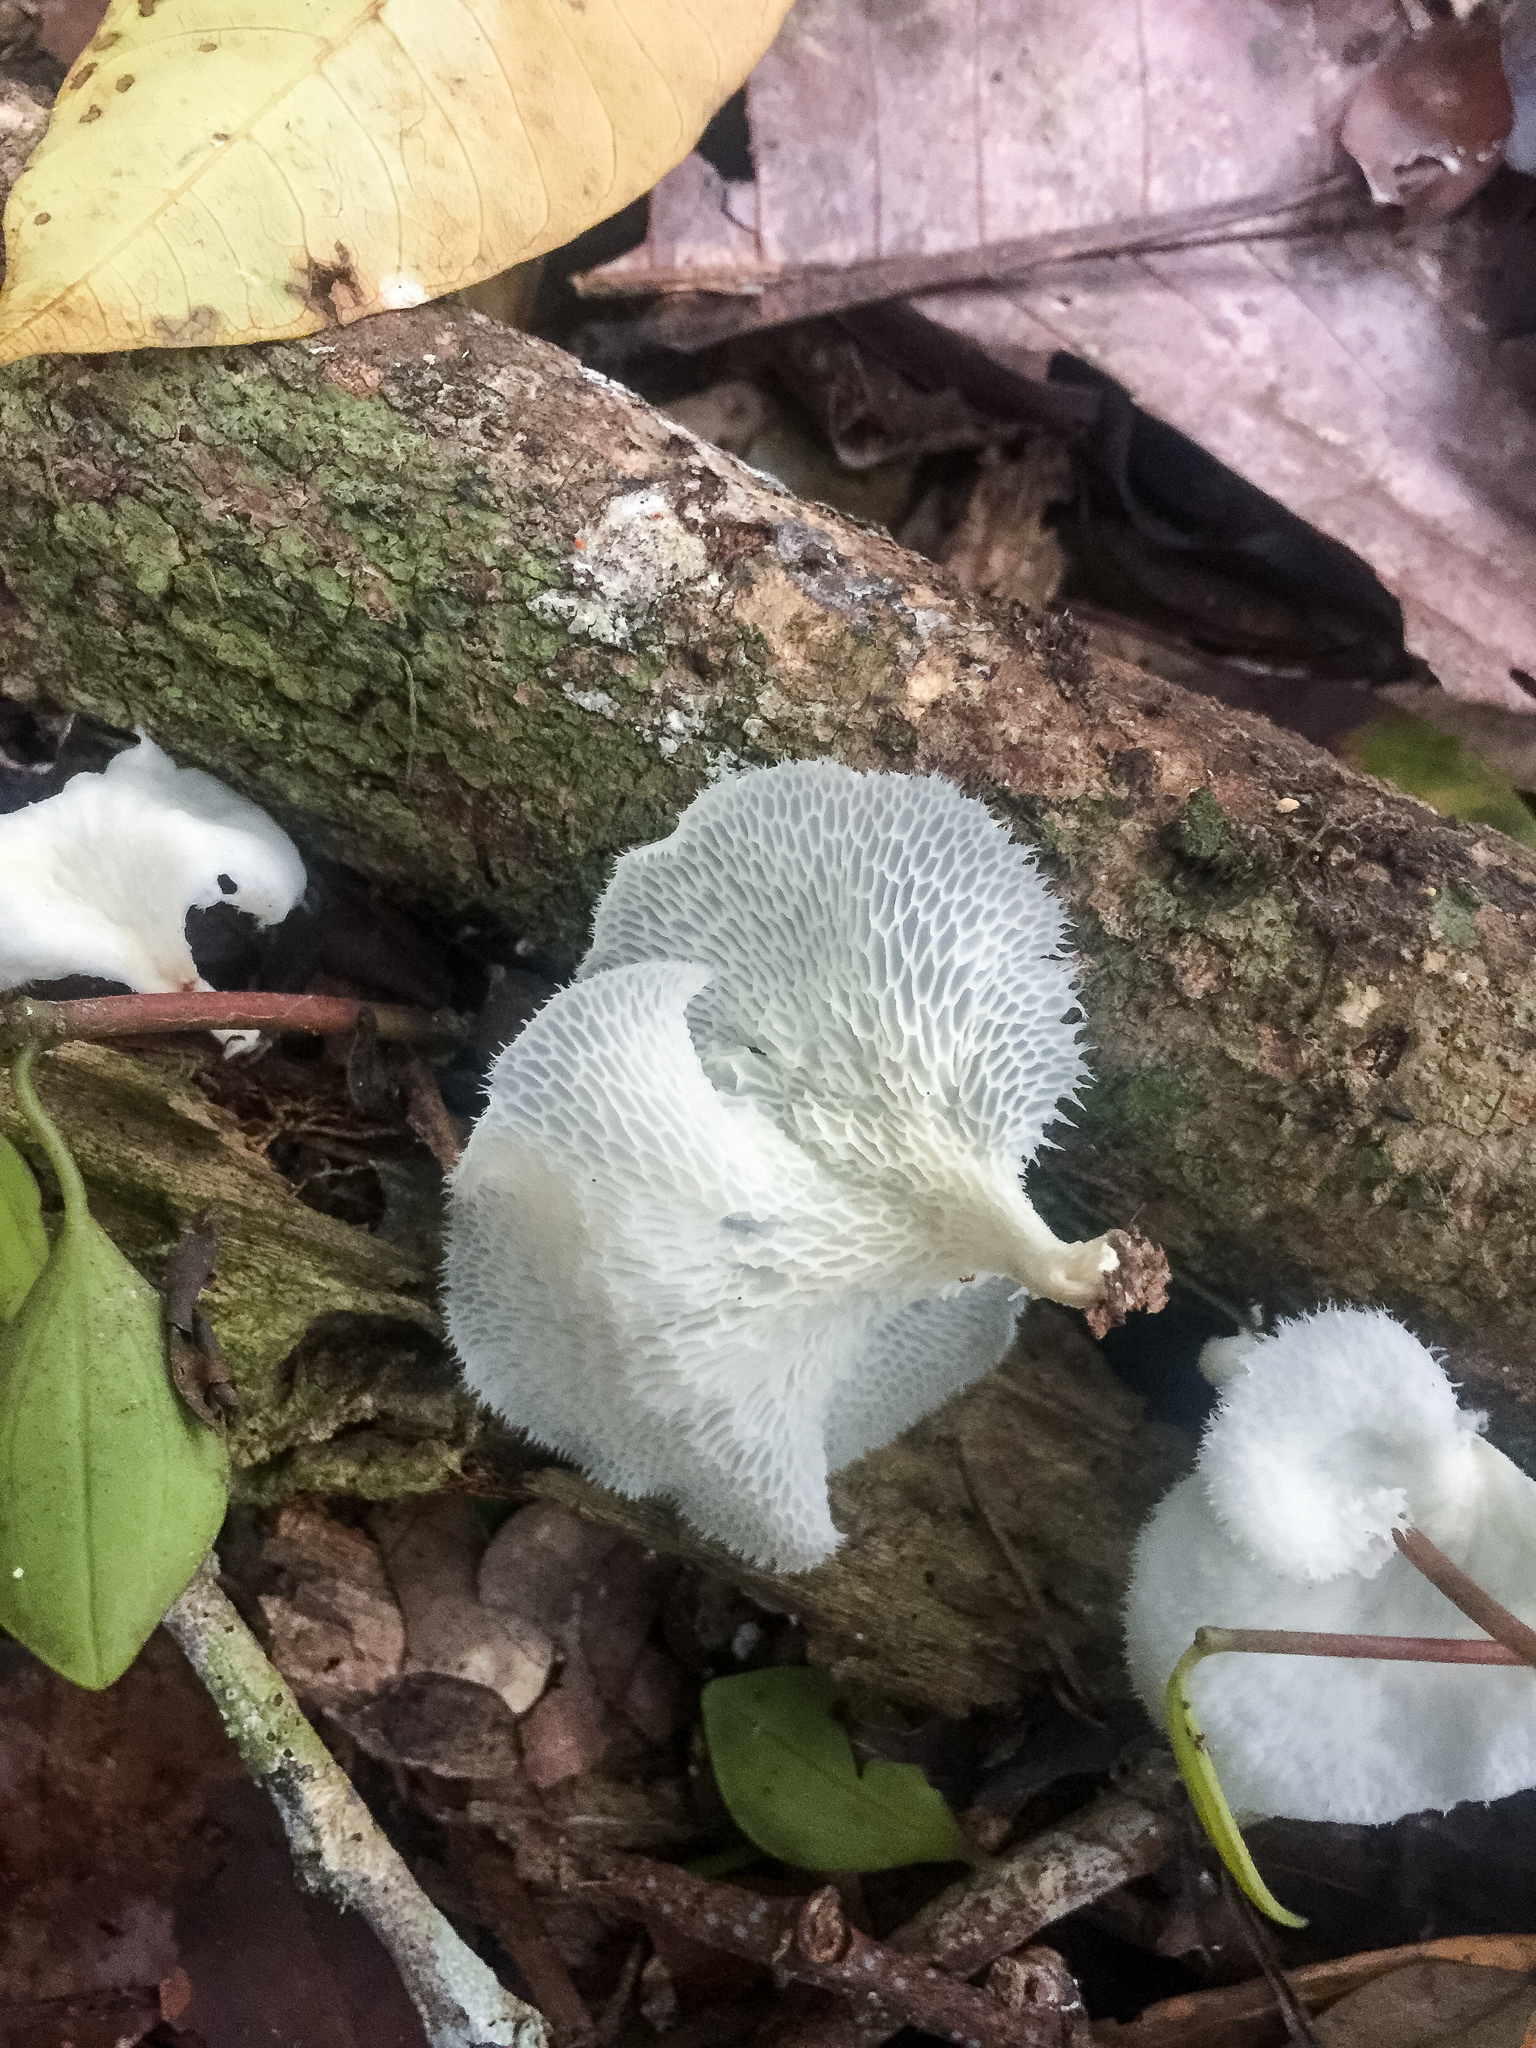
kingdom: Fungi
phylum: Basidiomycota
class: Agaricomycetes
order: Polyporales
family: Polyporaceae
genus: Favolus
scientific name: Favolus tenuiculus
